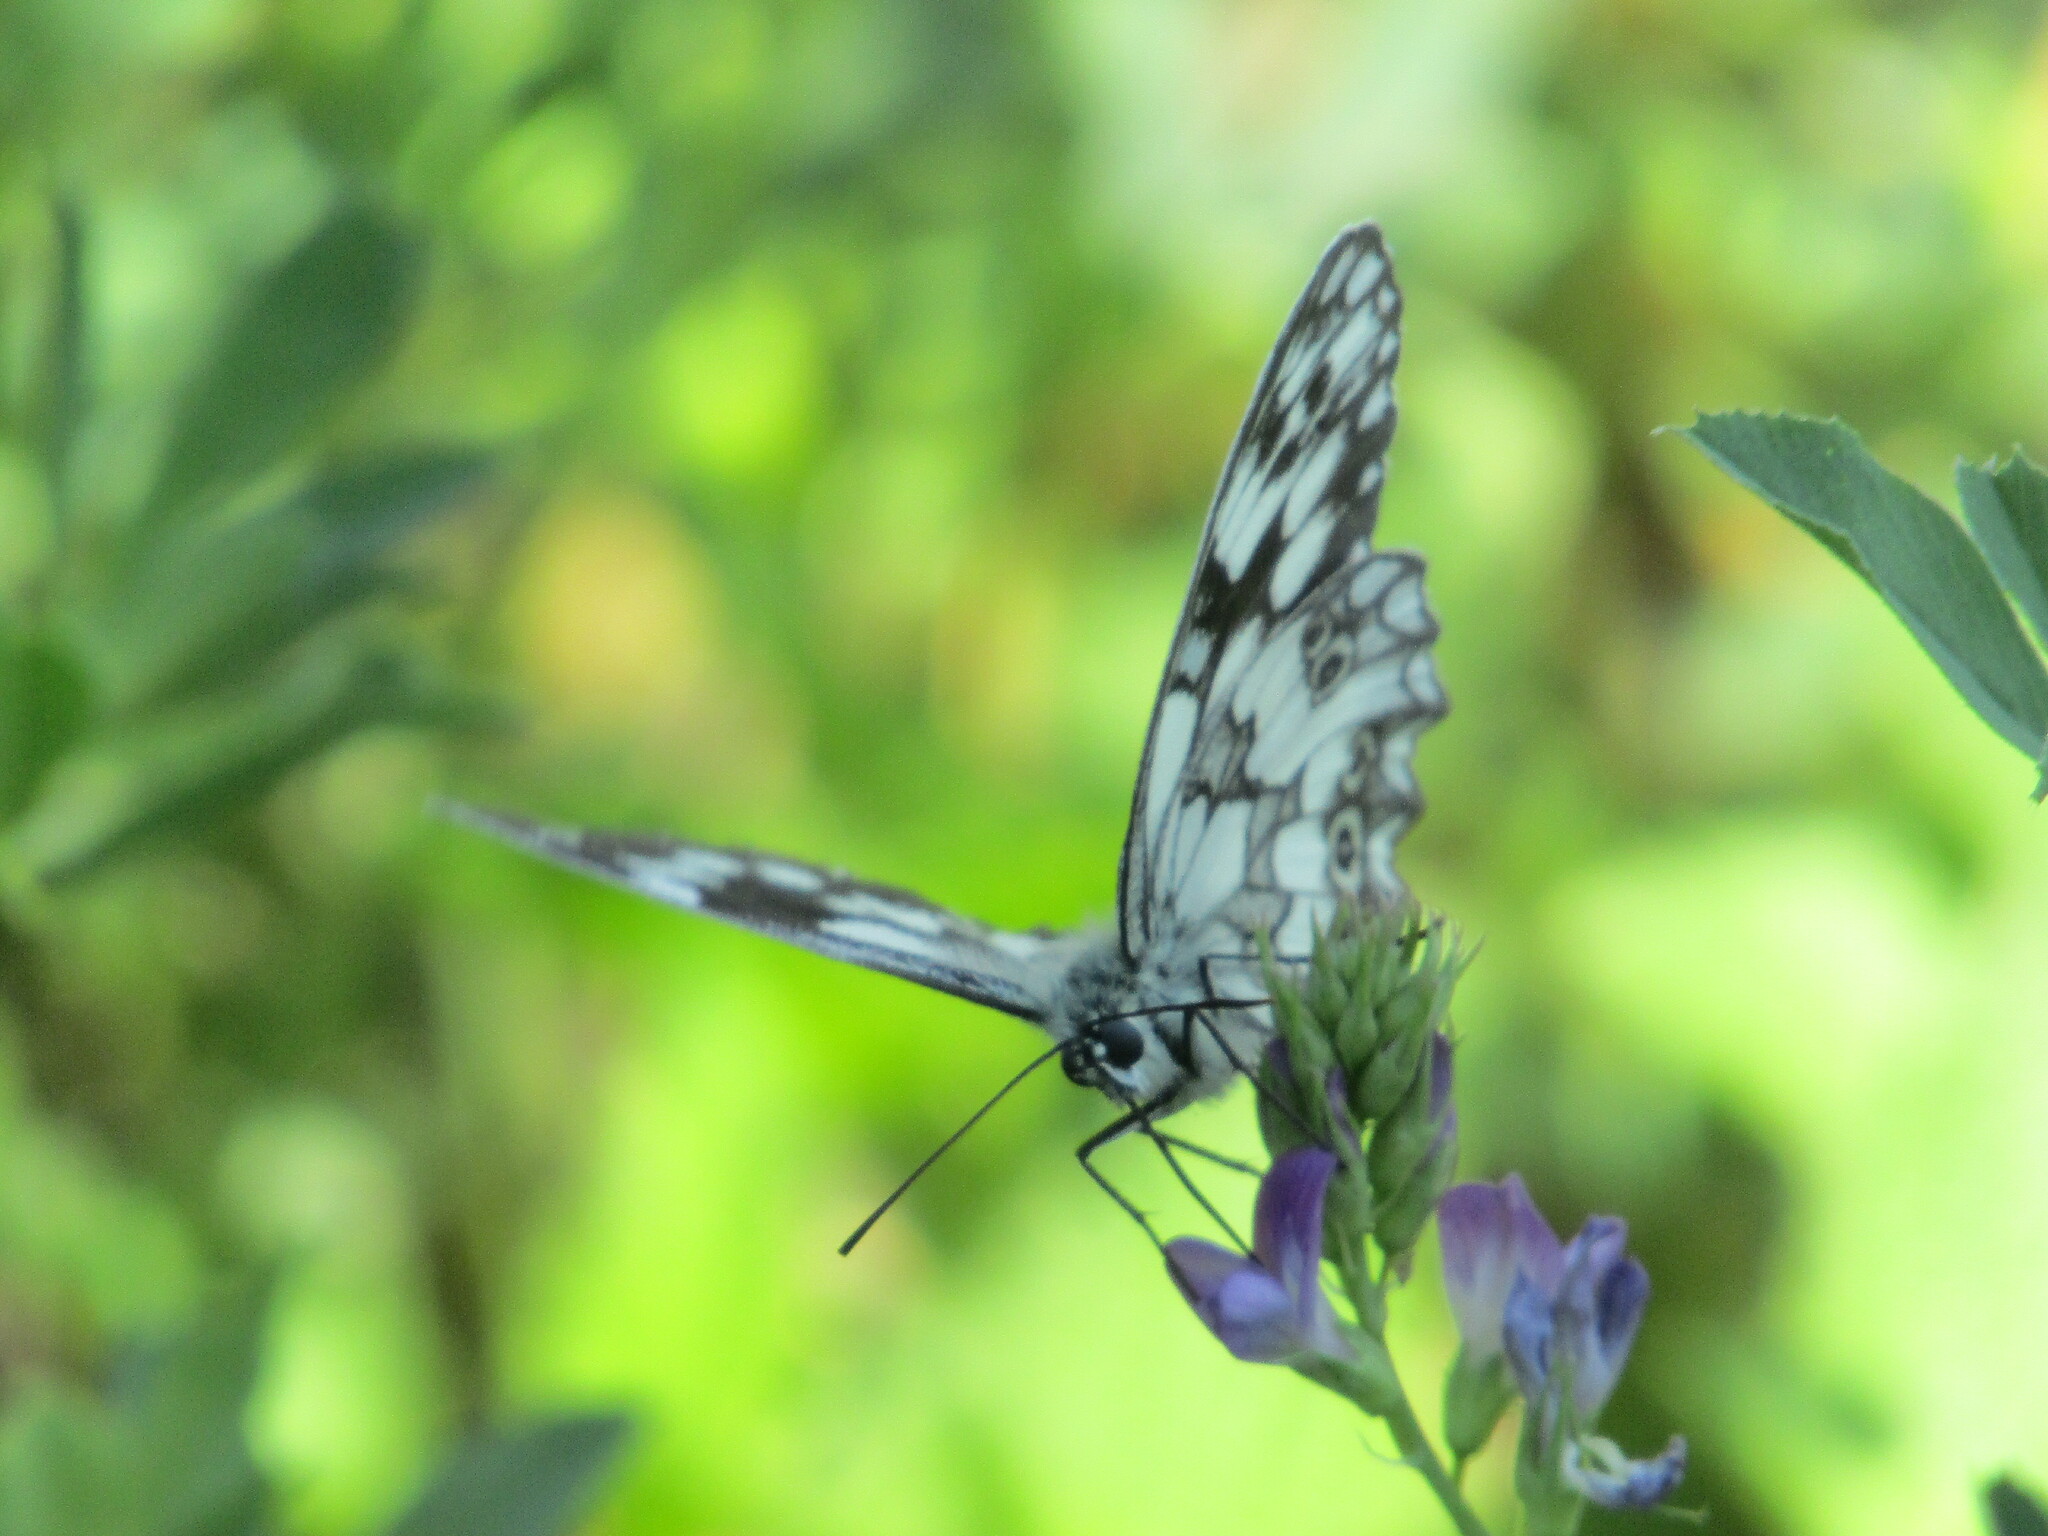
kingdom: Animalia
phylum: Arthropoda
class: Insecta
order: Lepidoptera
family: Nymphalidae
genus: Melanargia
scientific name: Melanargia galathea
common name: Marbled white
